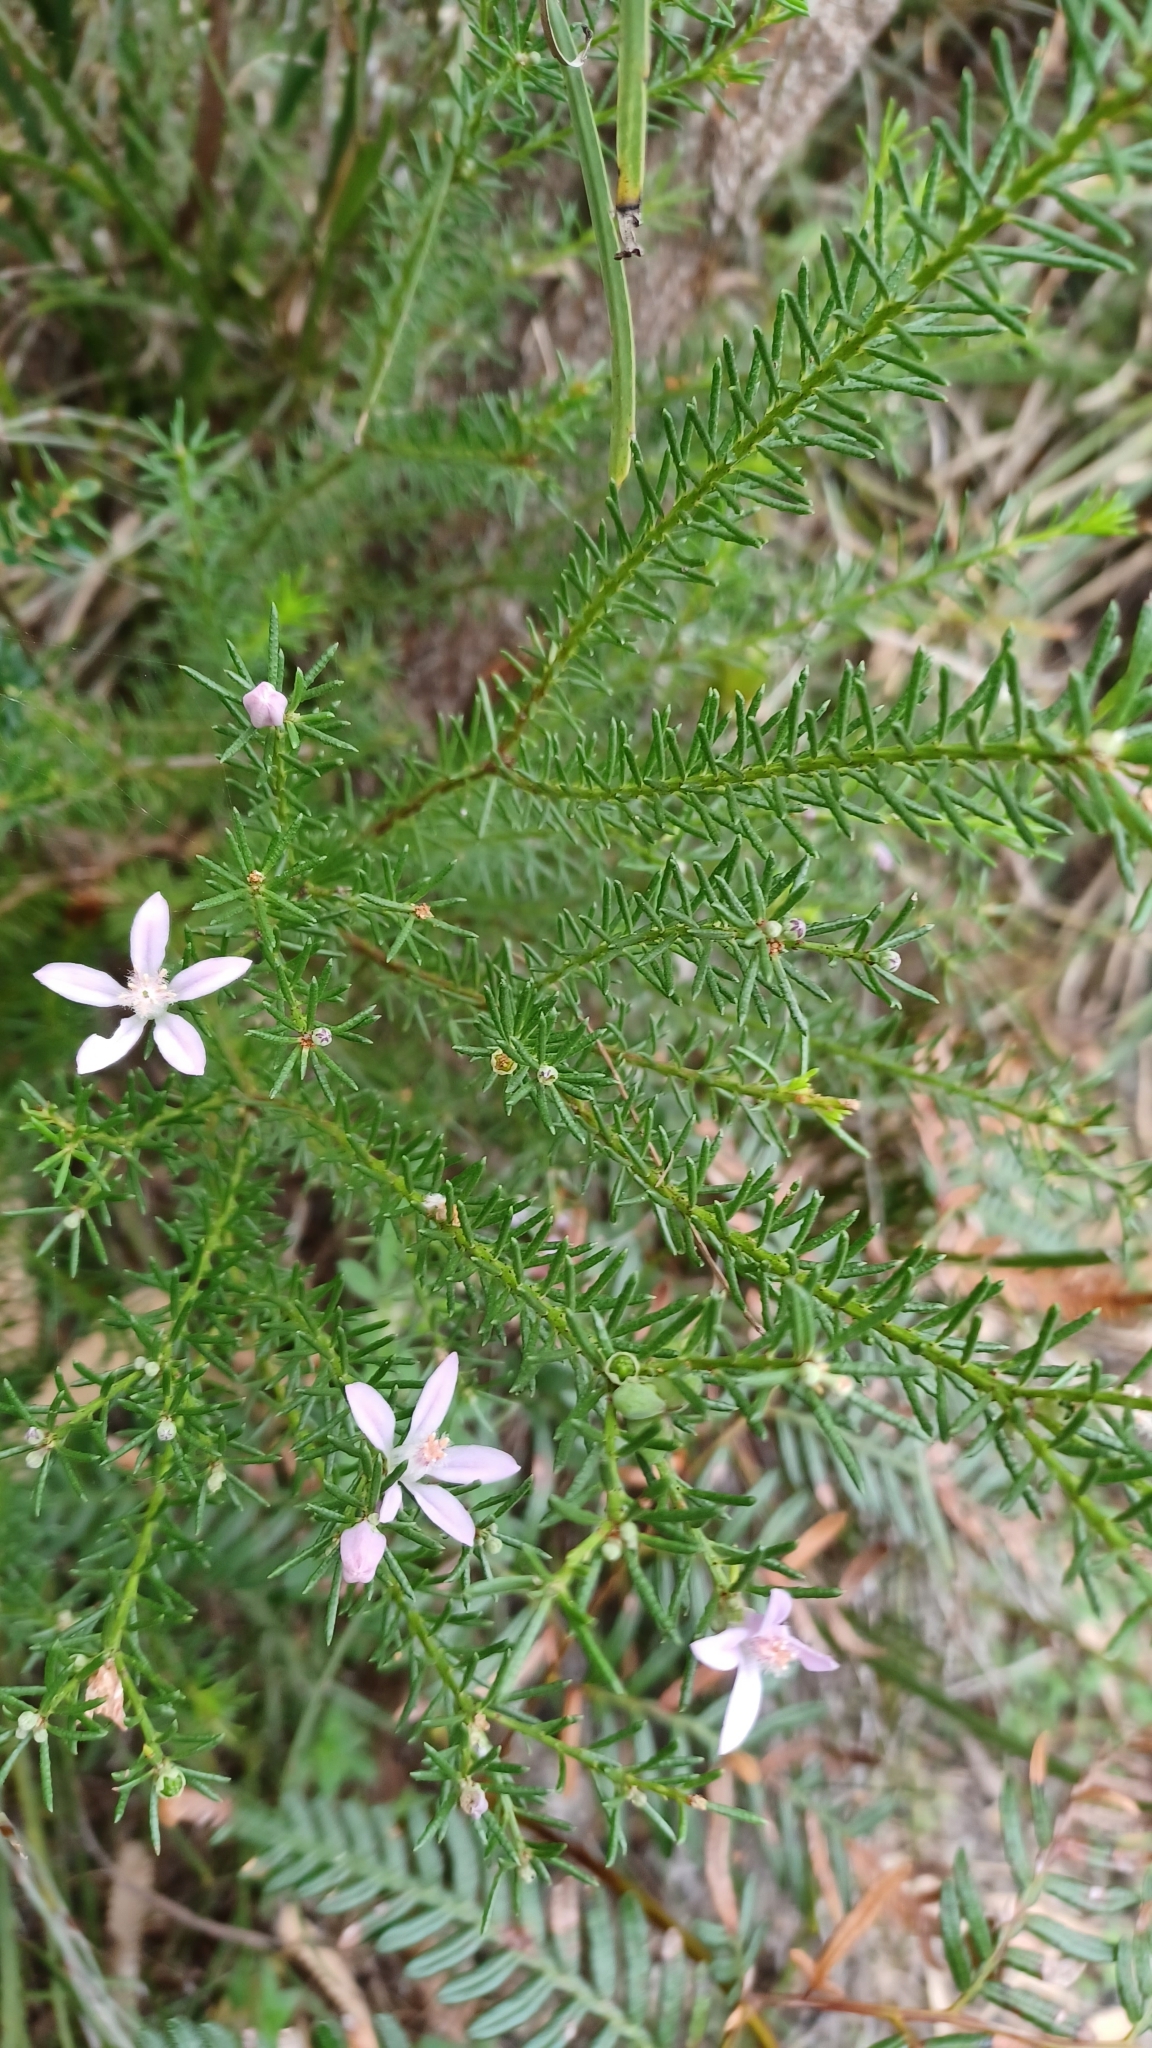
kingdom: Plantae
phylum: Tracheophyta
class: Magnoliopsida
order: Sapindales
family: Rutaceae
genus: Philotheca
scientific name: Philotheca salsolifolia
